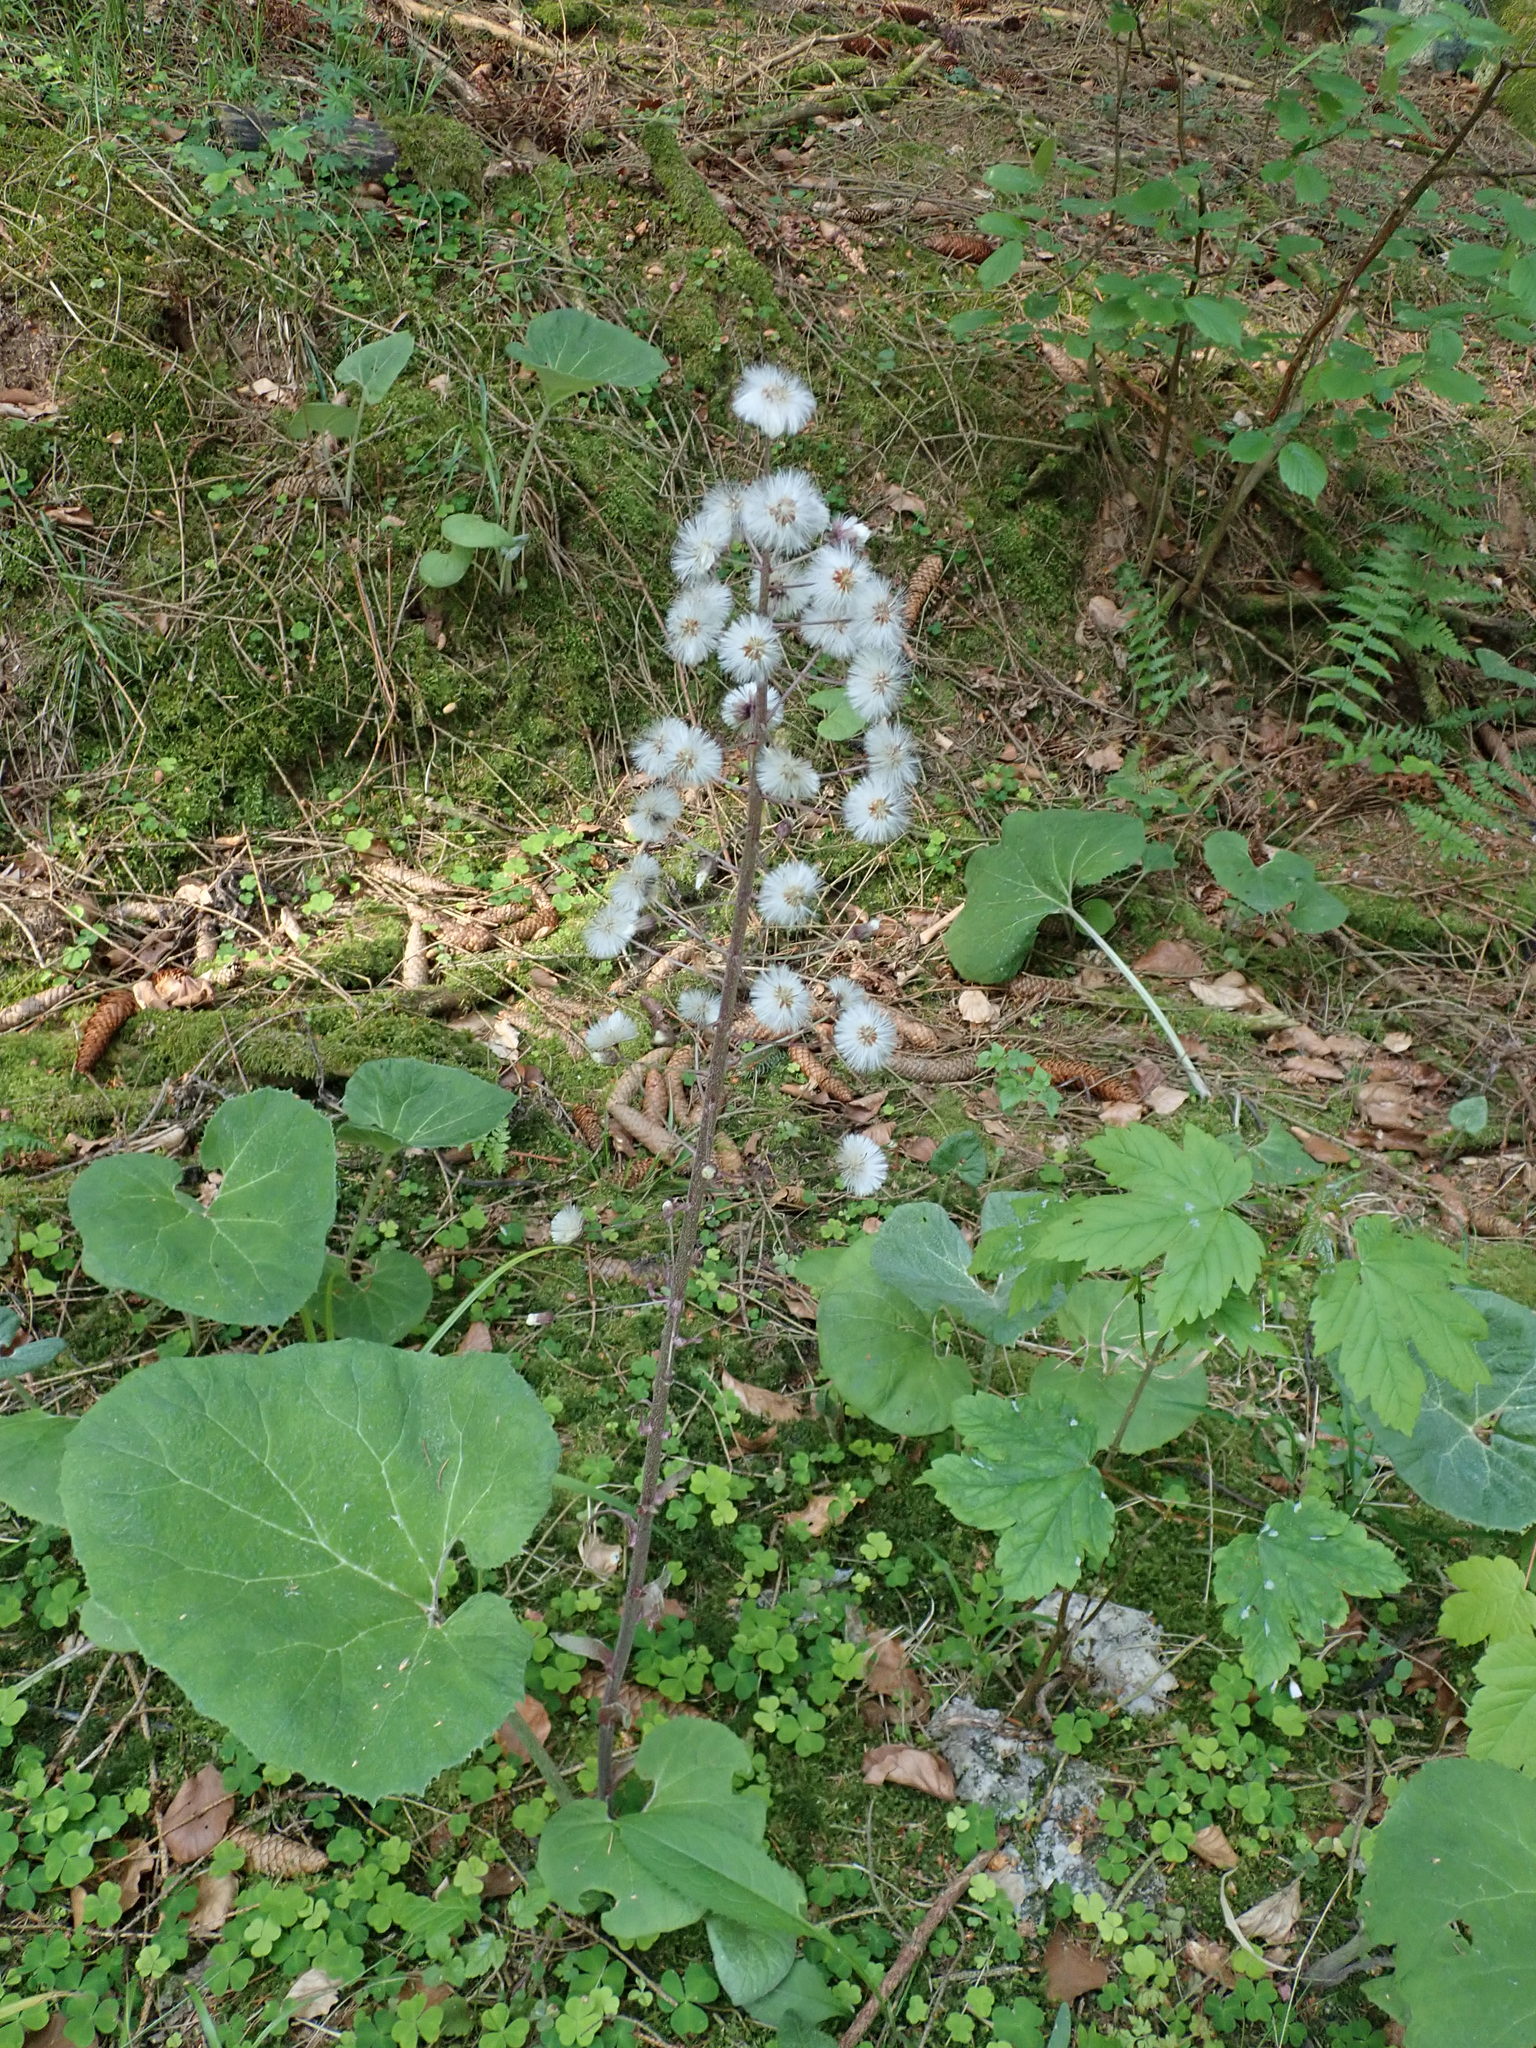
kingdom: Plantae
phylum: Tracheophyta
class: Magnoliopsida
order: Asterales
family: Asteraceae
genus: Petasites
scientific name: Petasites albus
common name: White butterbur
